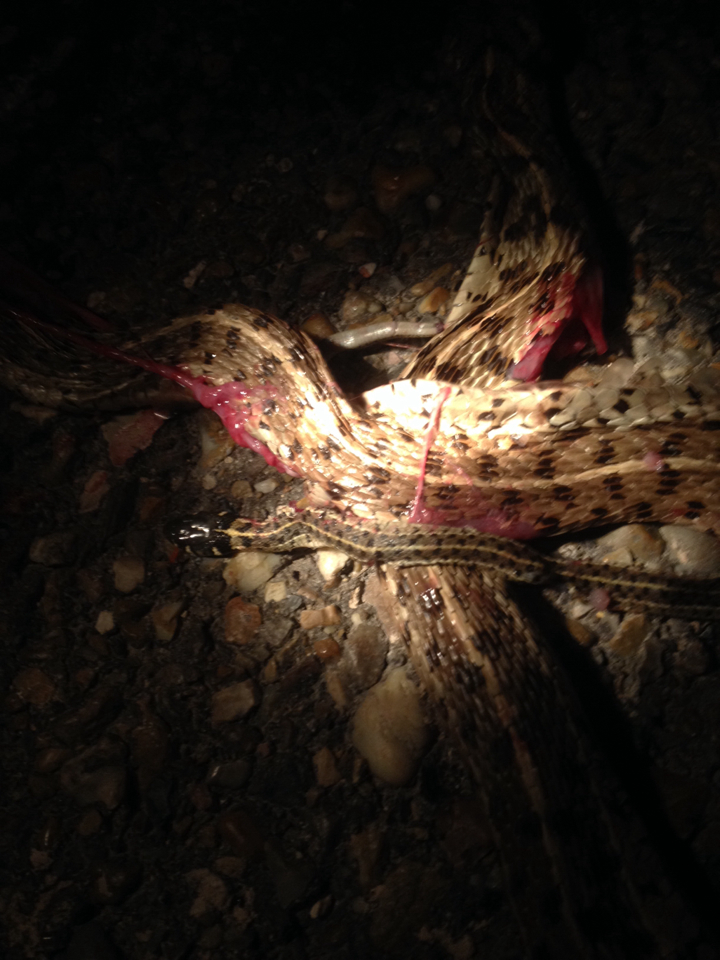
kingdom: Animalia
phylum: Chordata
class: Squamata
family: Colubridae
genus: Thamnophis
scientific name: Thamnophis marcianus
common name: Checkered garter snake
